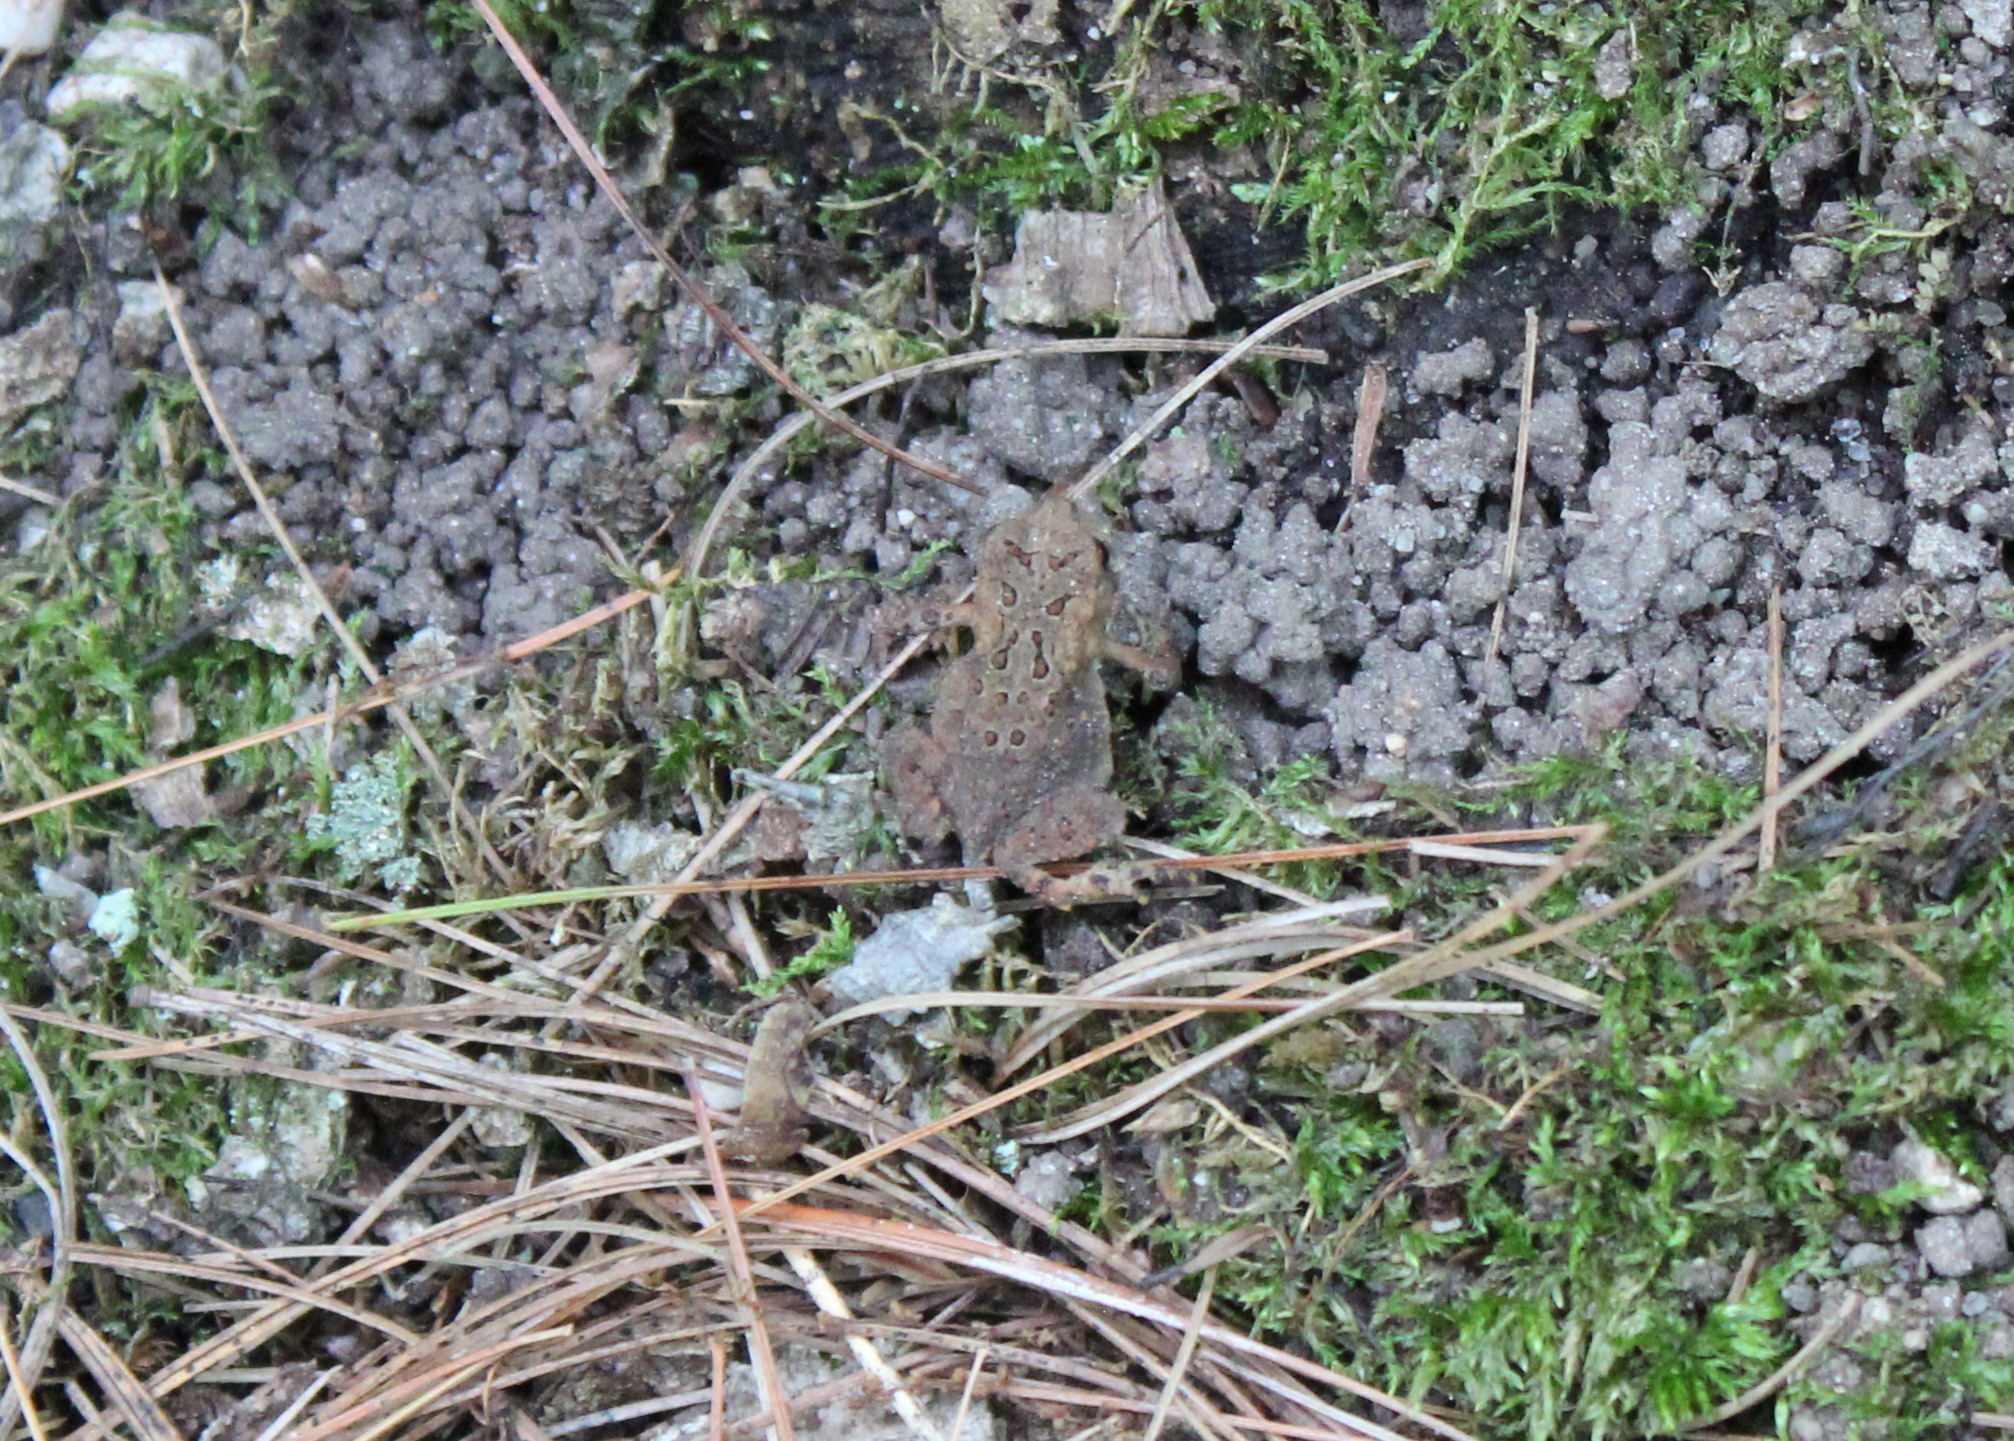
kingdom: Animalia
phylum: Chordata
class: Amphibia
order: Anura
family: Bufonidae
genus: Anaxyrus
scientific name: Anaxyrus americanus
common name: American toad
